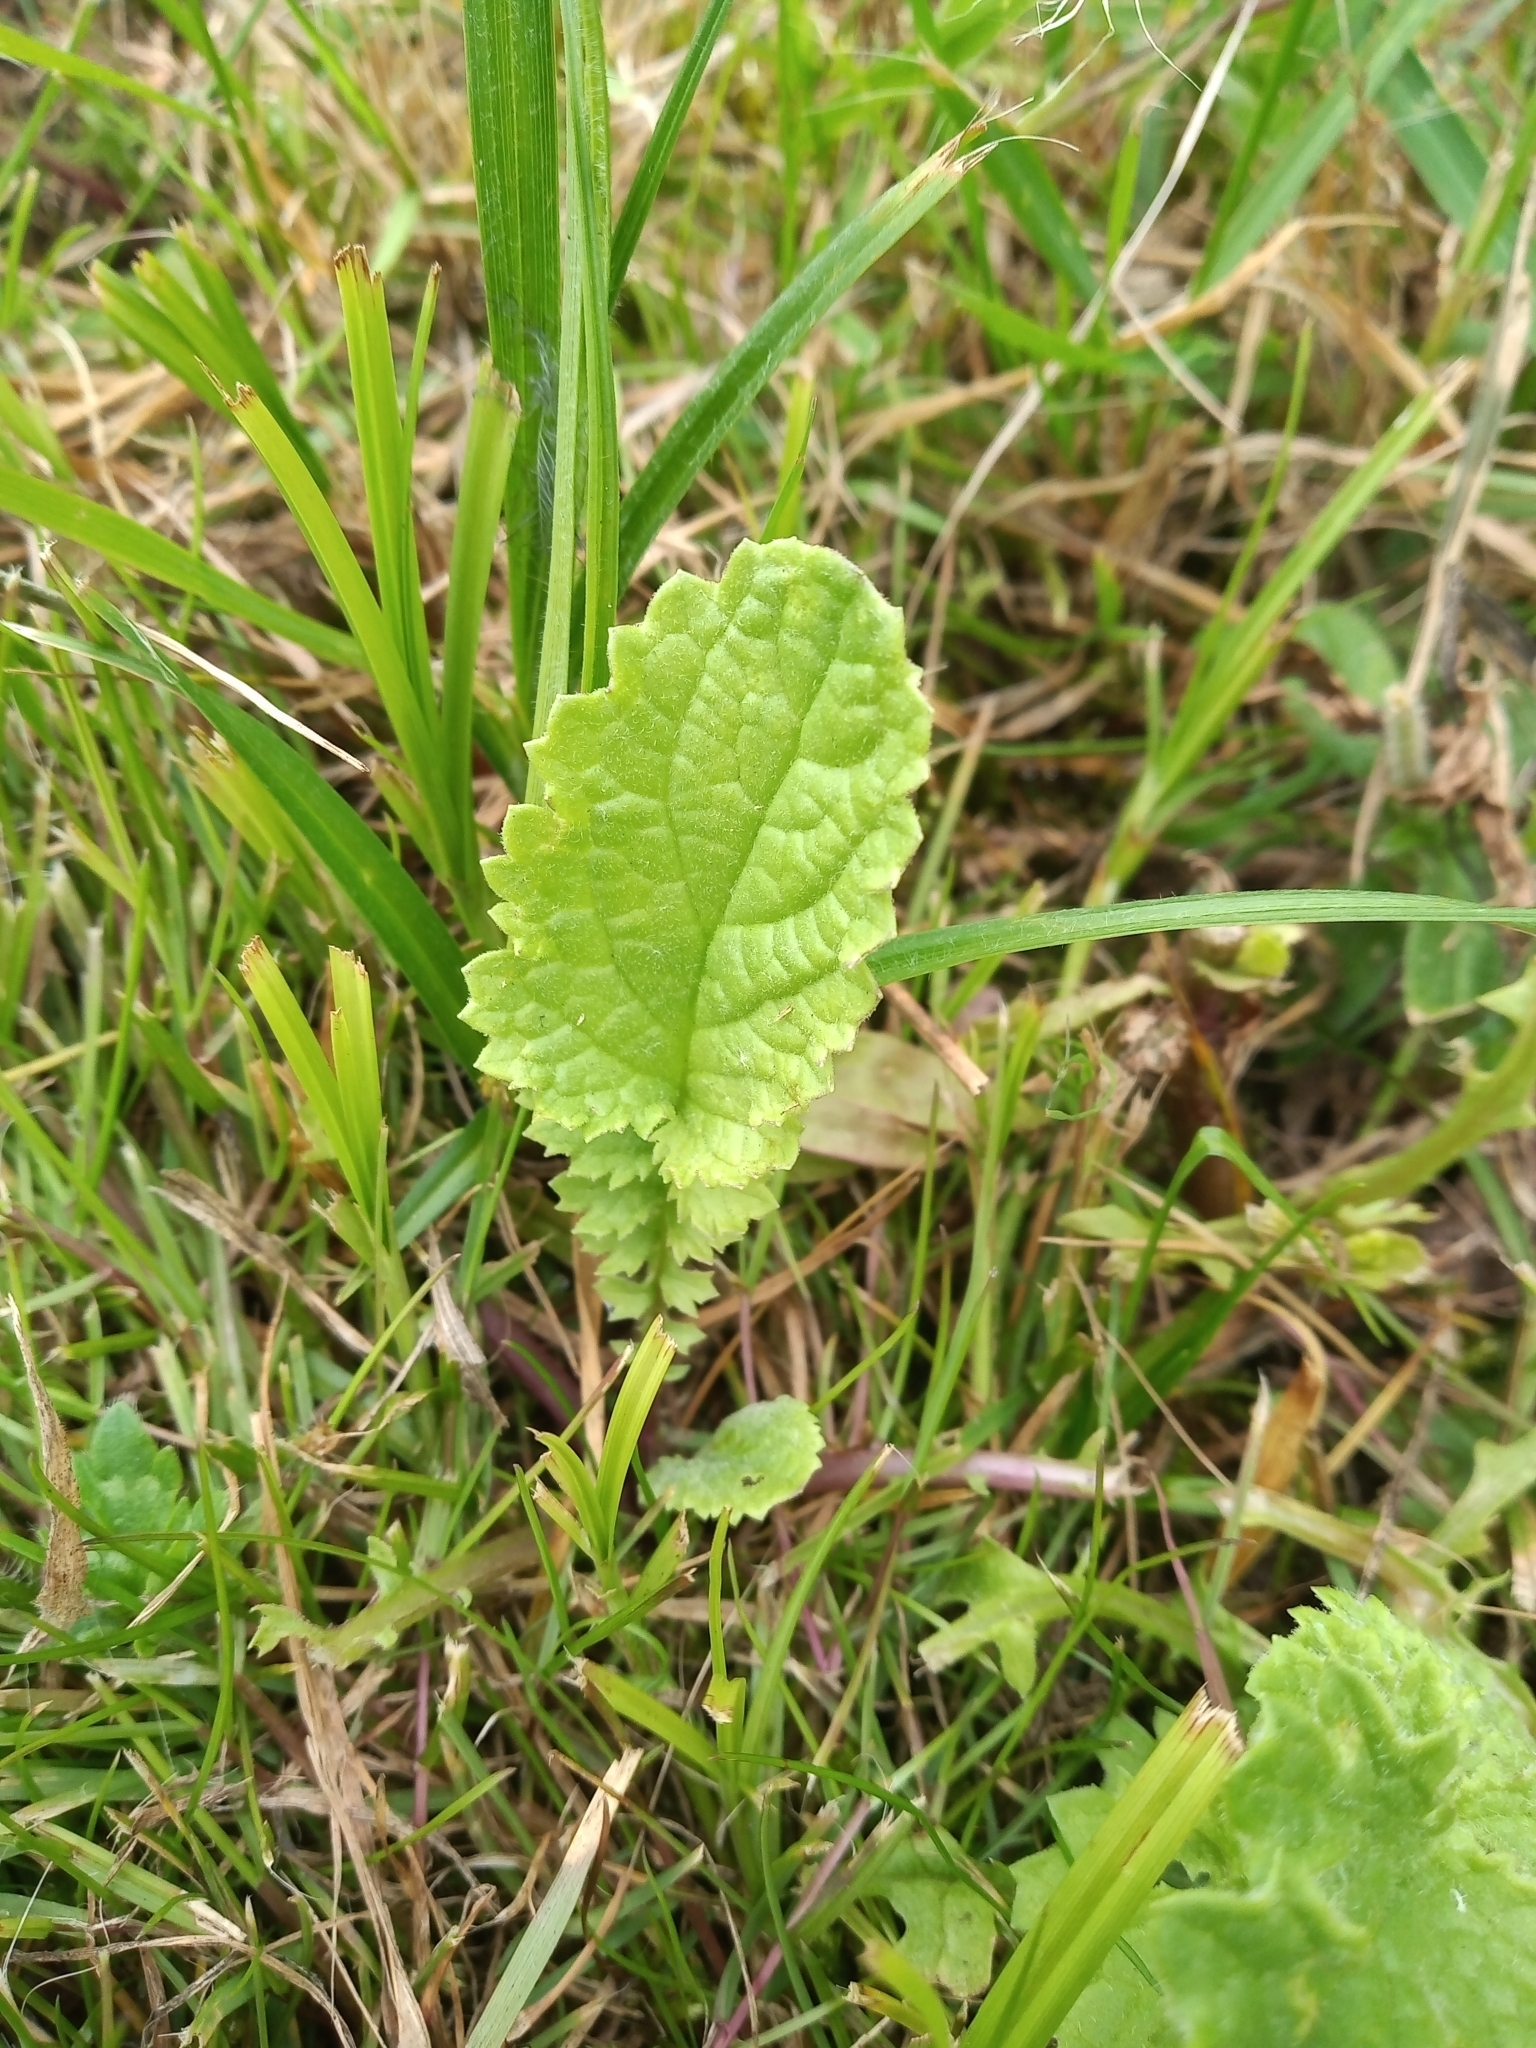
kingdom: Plantae
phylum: Tracheophyta
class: Magnoliopsida
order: Asterales
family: Asteraceae
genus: Jacobaea
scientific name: Jacobaea vulgaris
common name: Stinking willie
